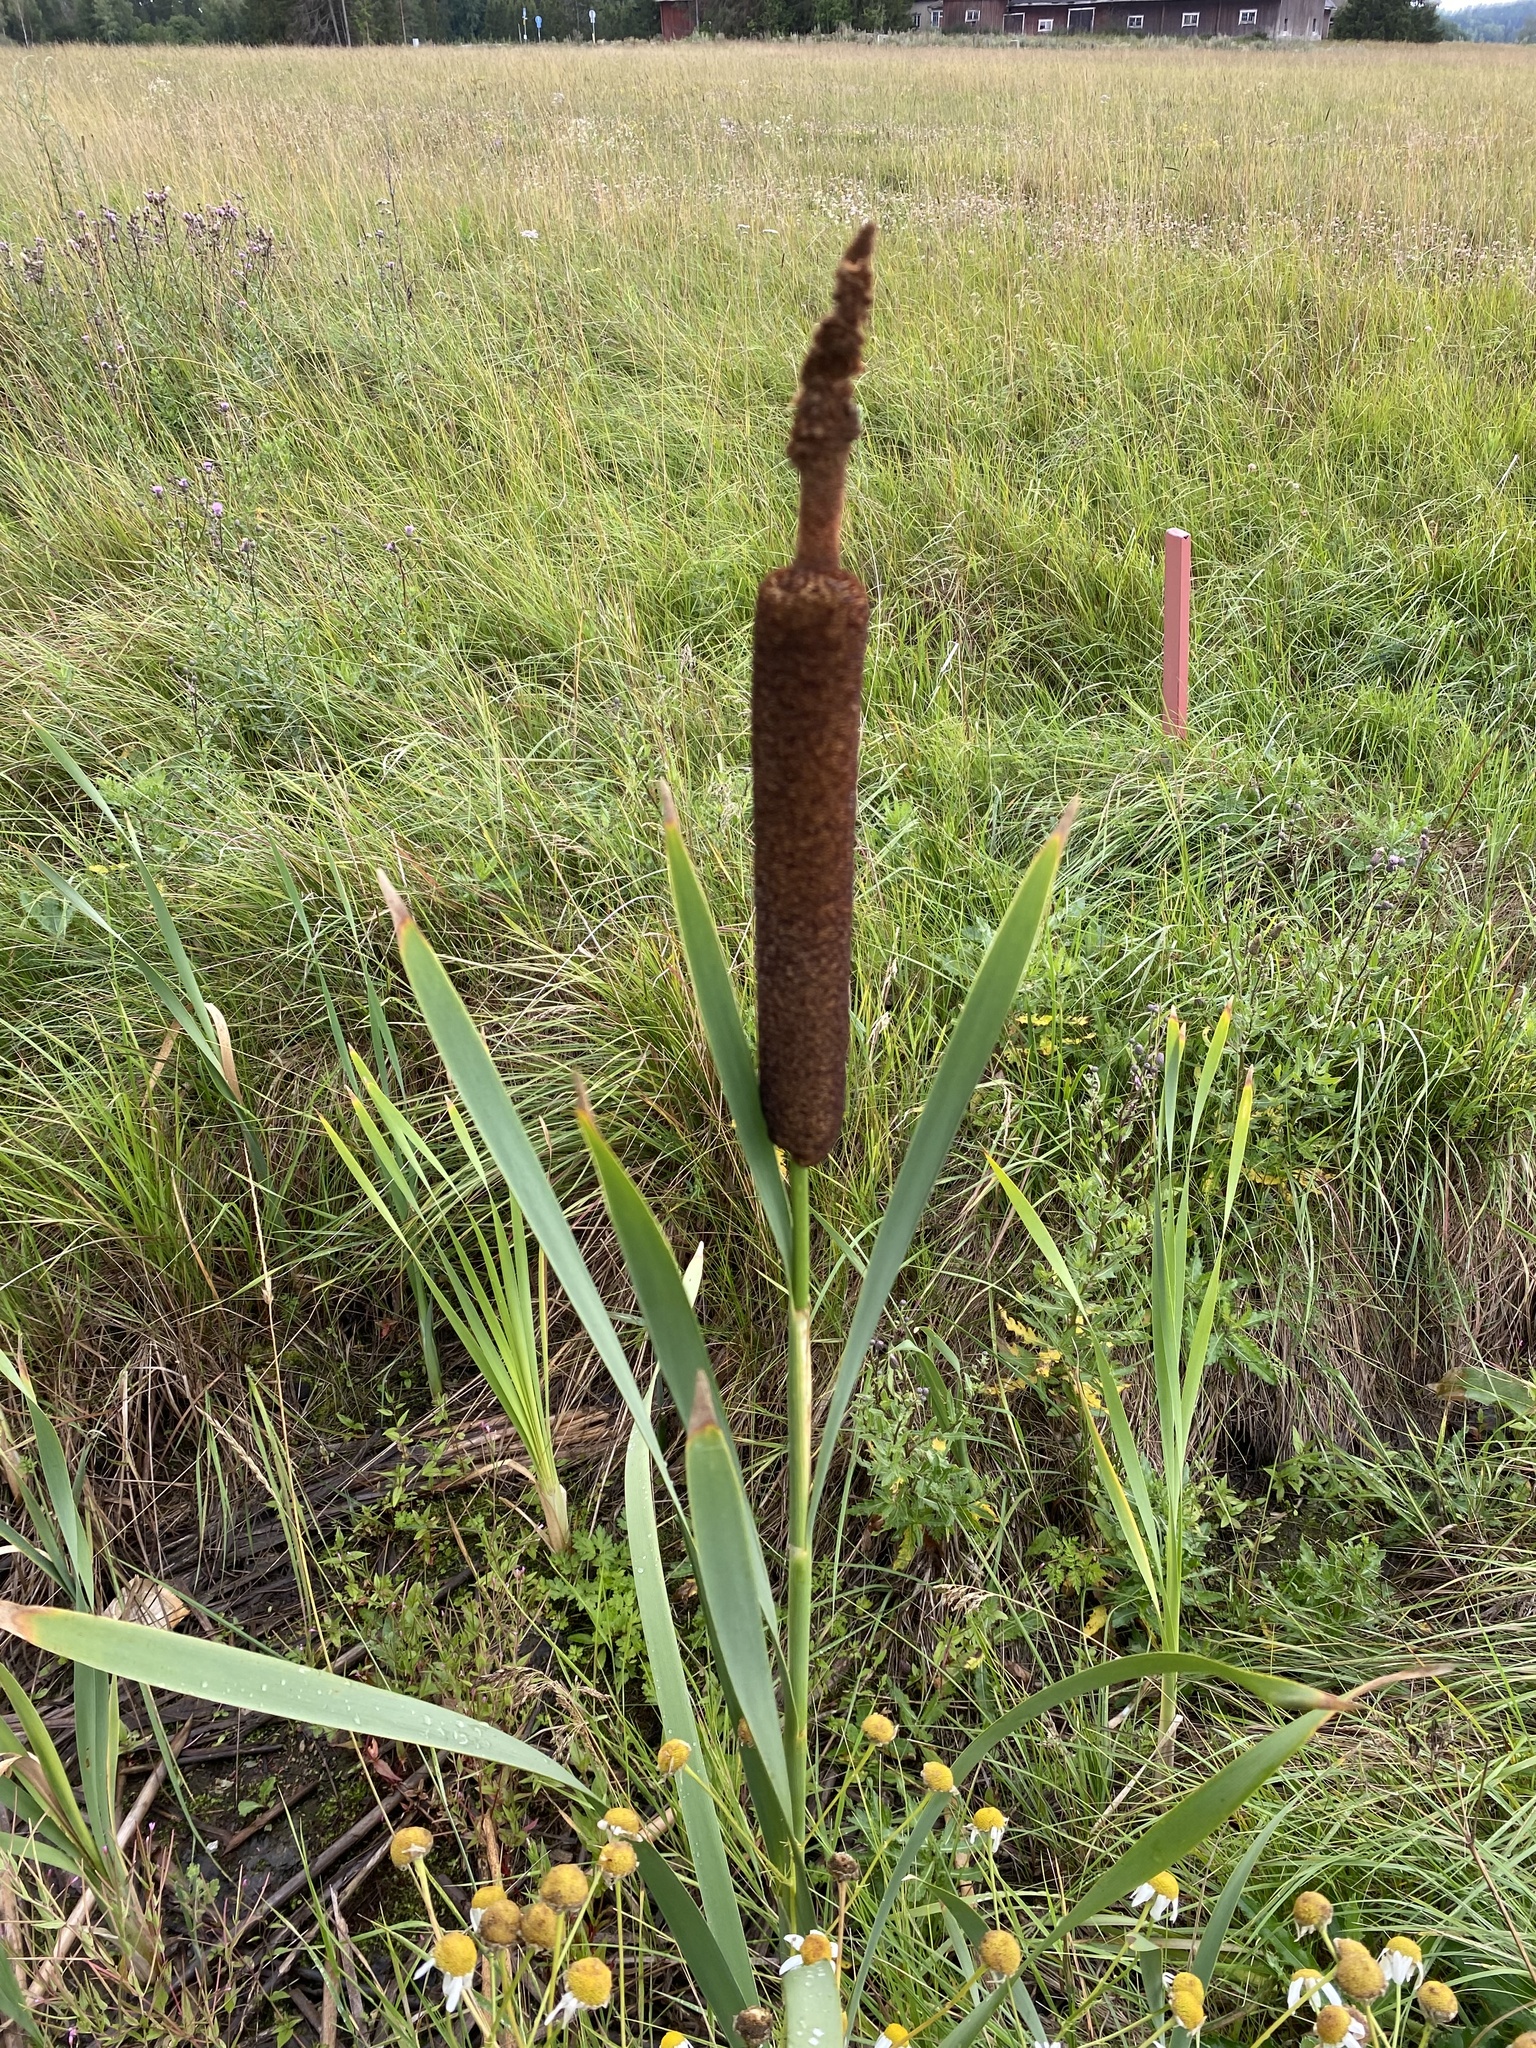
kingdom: Plantae
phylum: Tracheophyta
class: Liliopsida
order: Poales
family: Typhaceae
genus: Typha
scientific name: Typha latifolia
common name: Broadleaf cattail
